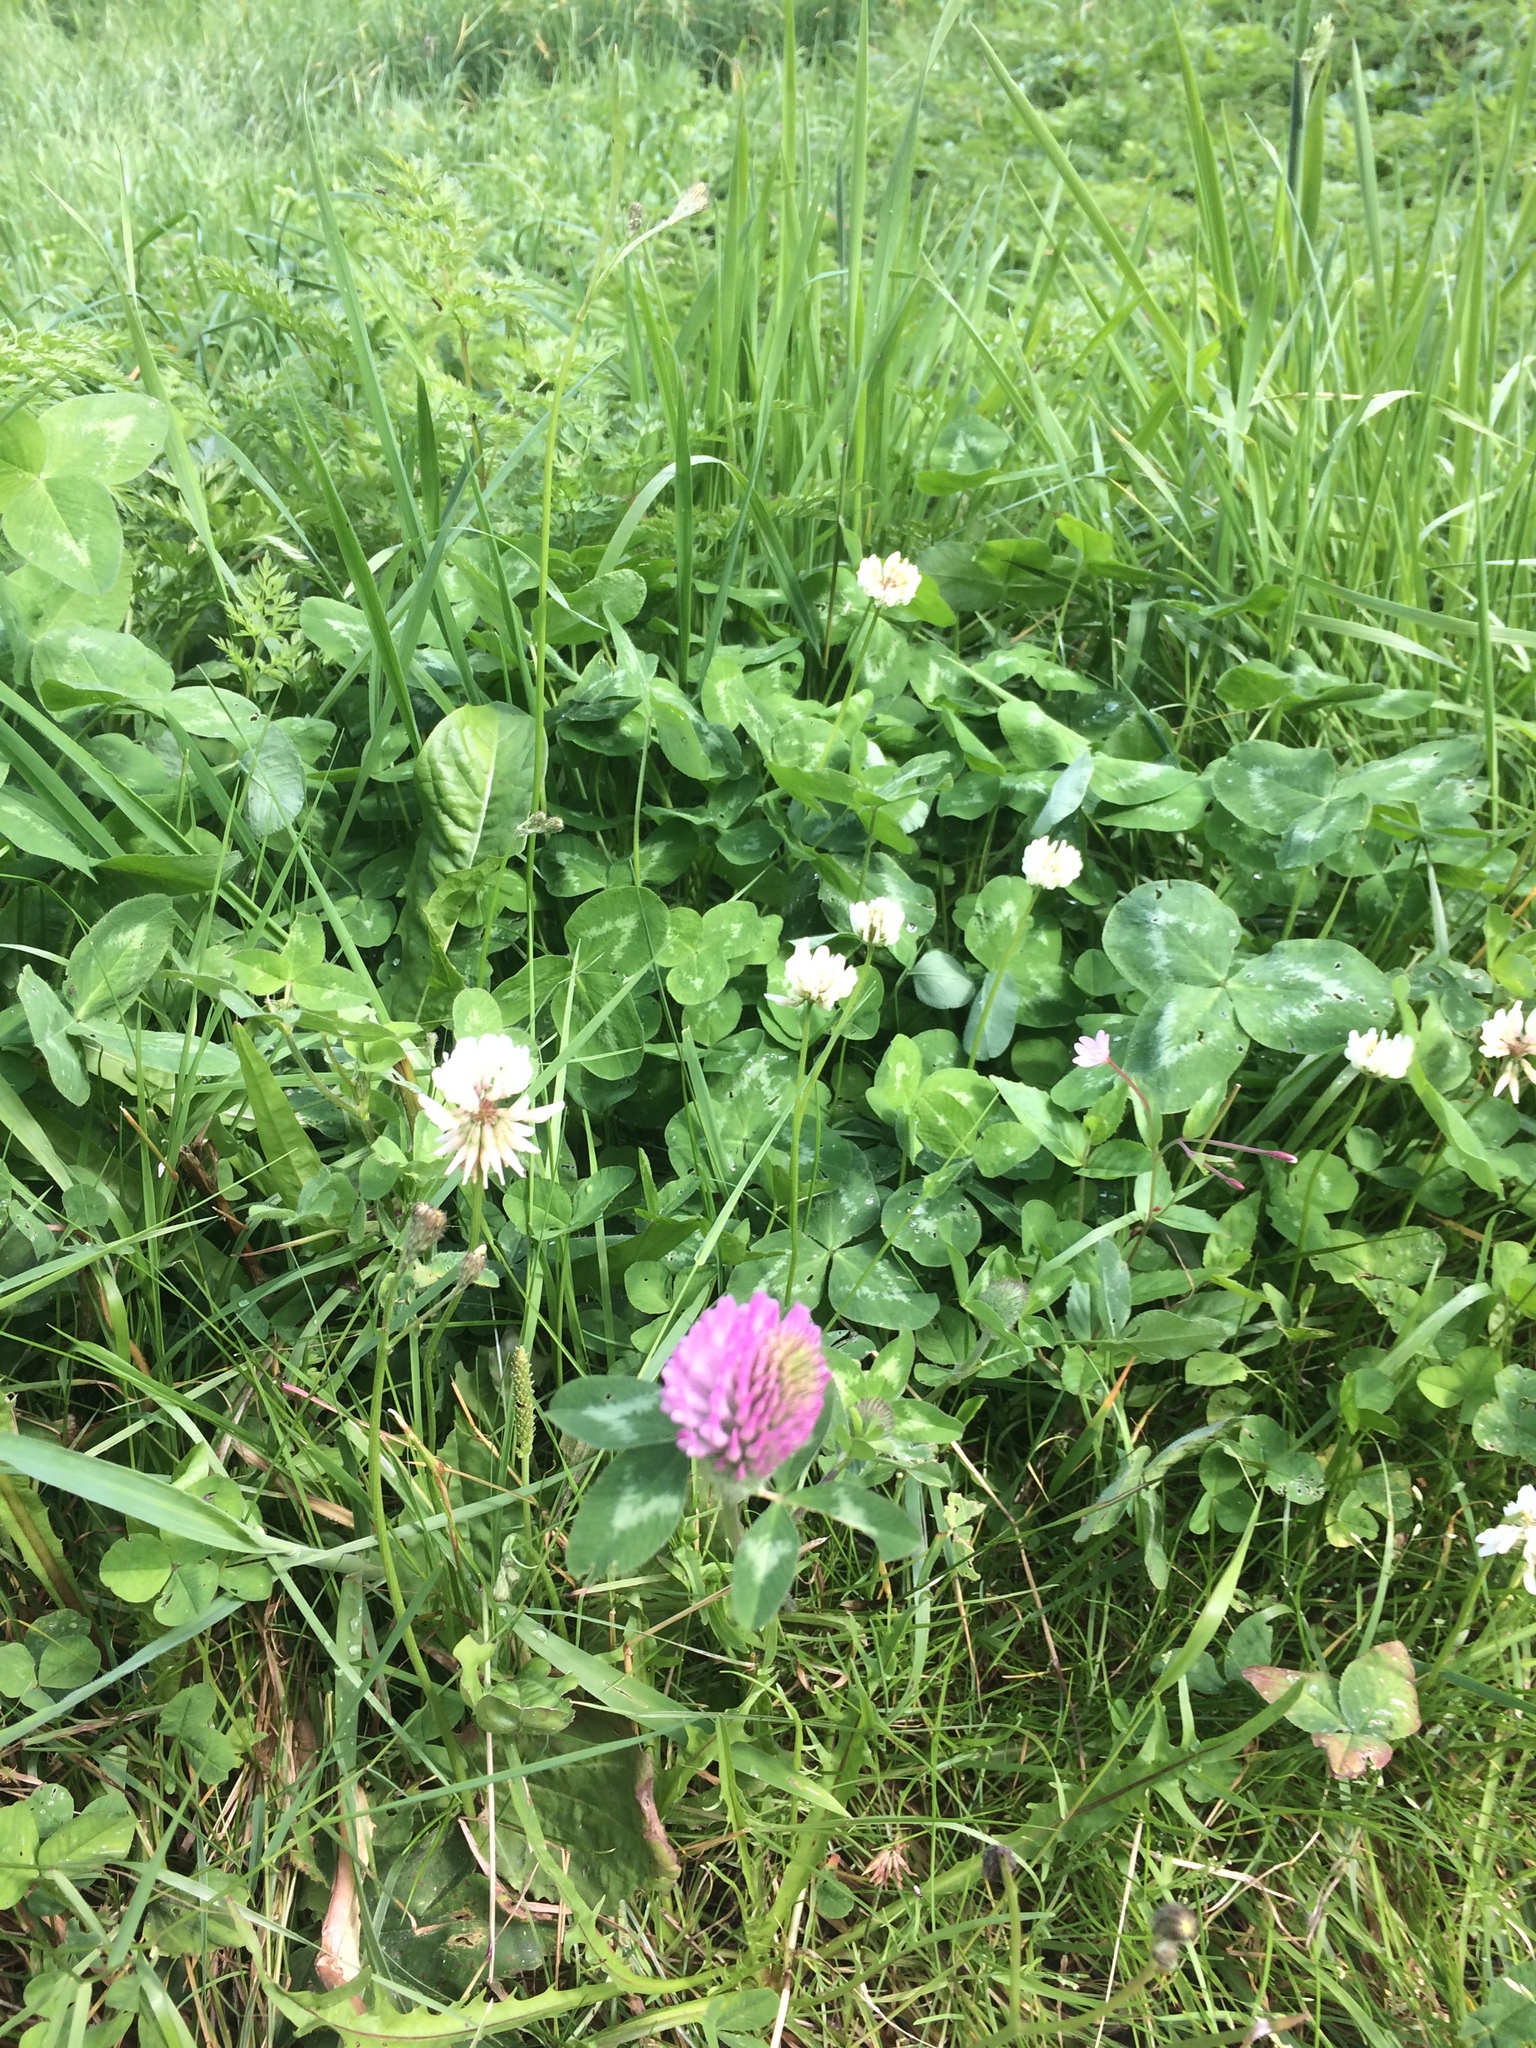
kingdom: Plantae
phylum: Tracheophyta
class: Magnoliopsida
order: Fabales
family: Fabaceae
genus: Trifolium
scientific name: Trifolium pratense
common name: Red clover
